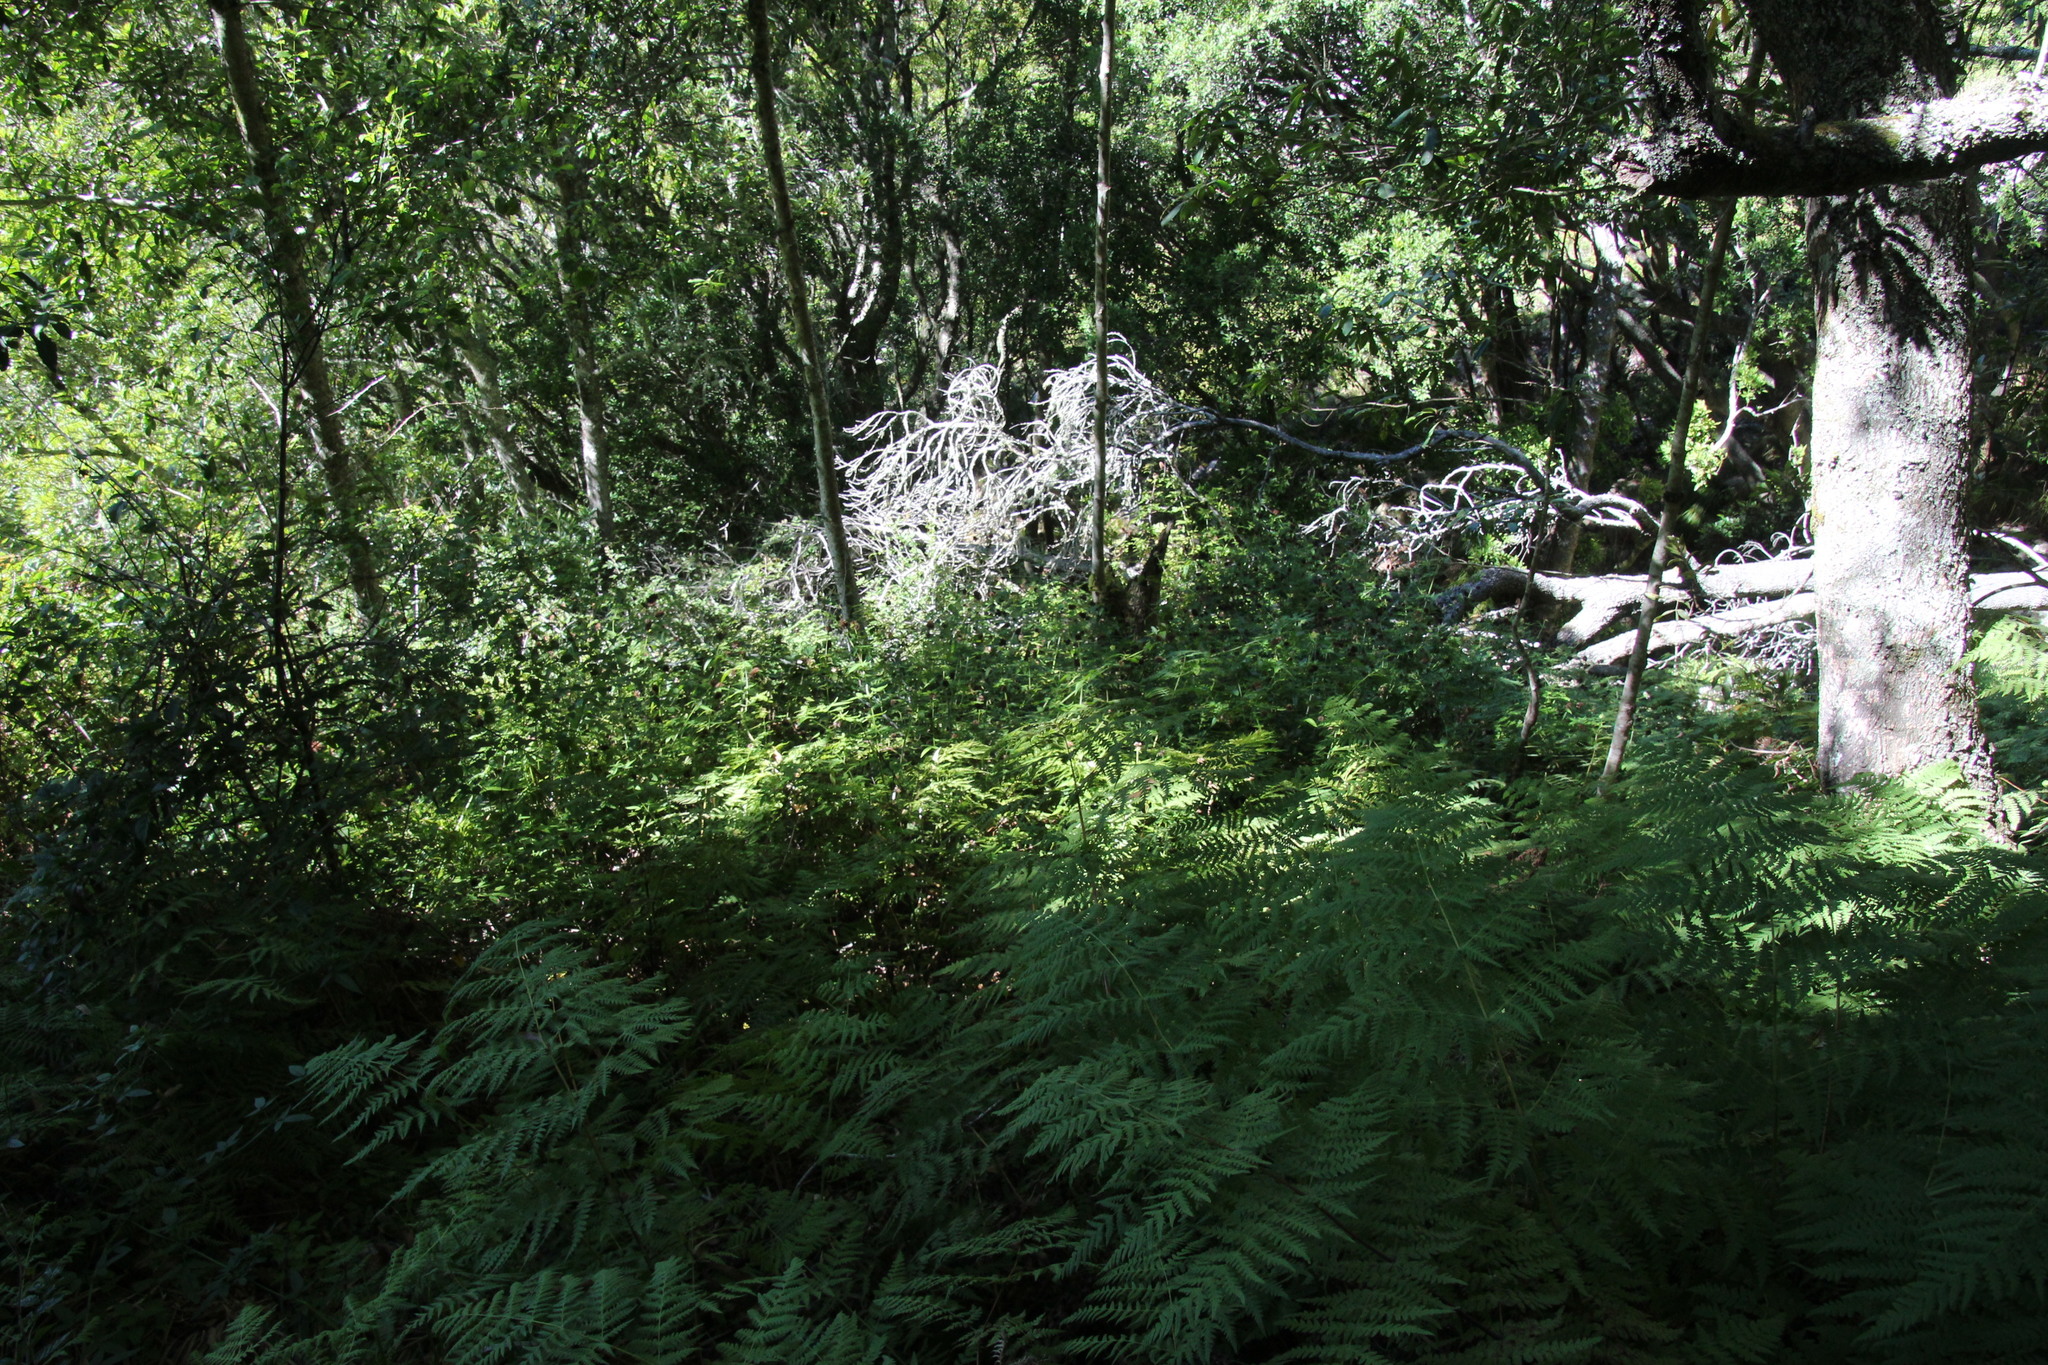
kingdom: Plantae
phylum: Tracheophyta
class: Magnoliopsida
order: Lamiales
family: Lamiaceae
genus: Cedronella
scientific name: Cedronella canariensis
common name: Canary islands balm
